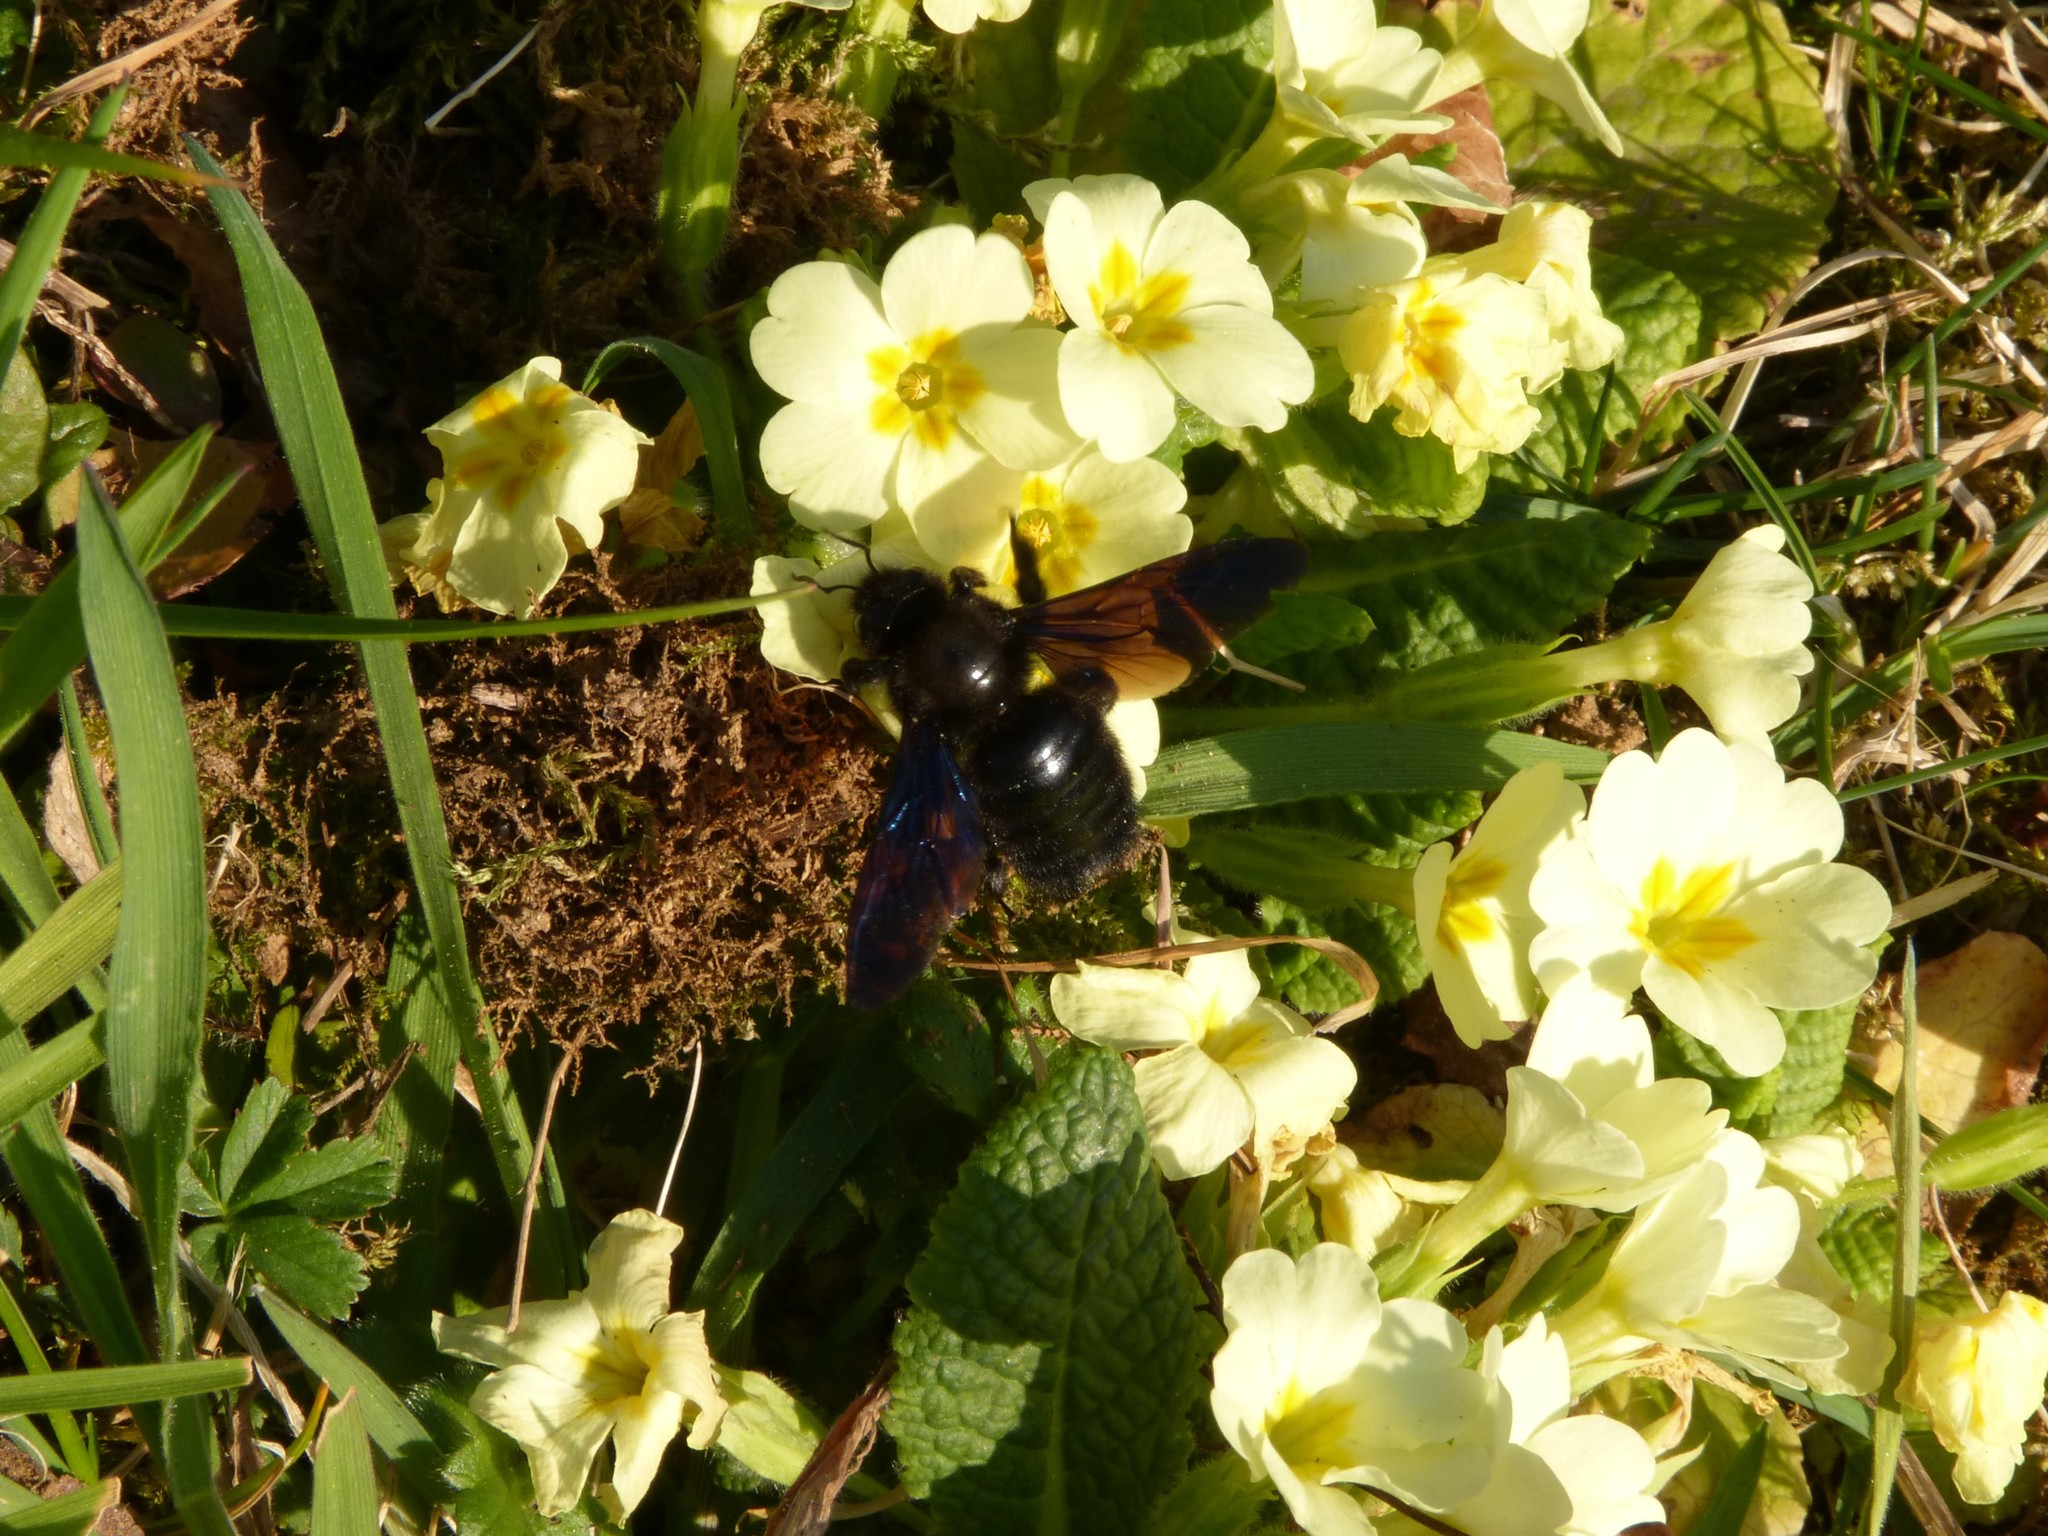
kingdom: Animalia
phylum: Arthropoda
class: Insecta
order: Hymenoptera
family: Apidae
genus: Xylocopa
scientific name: Xylocopa violacea
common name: Violet carpenter bee
